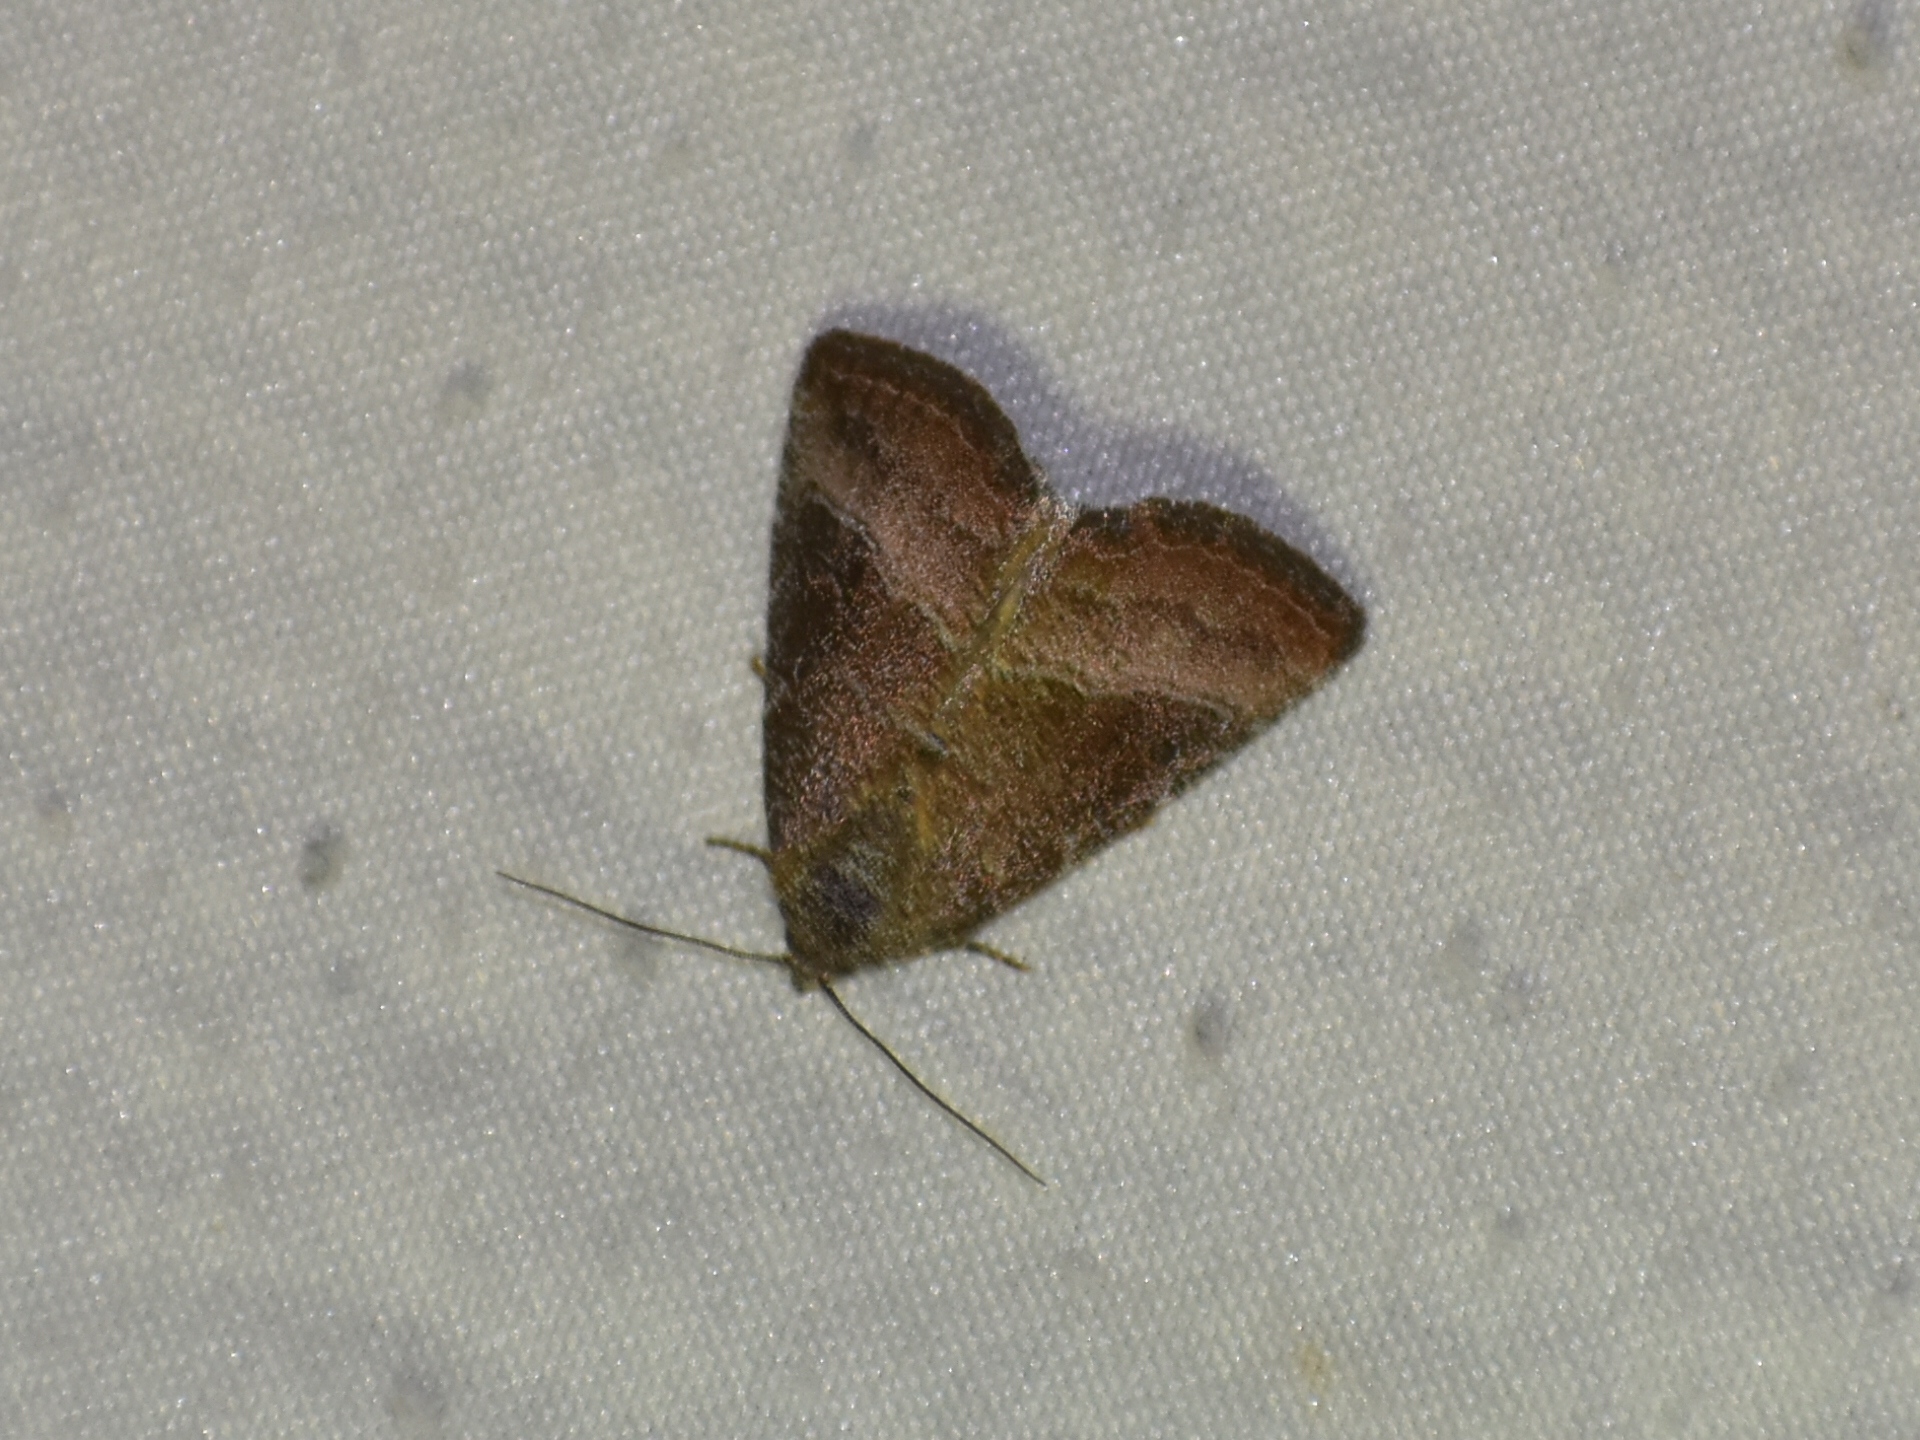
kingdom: Animalia
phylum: Arthropoda
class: Insecta
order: Lepidoptera
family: Noctuidae
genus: Ogdoconta
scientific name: Ogdoconta cinereola
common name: Common pinkband
